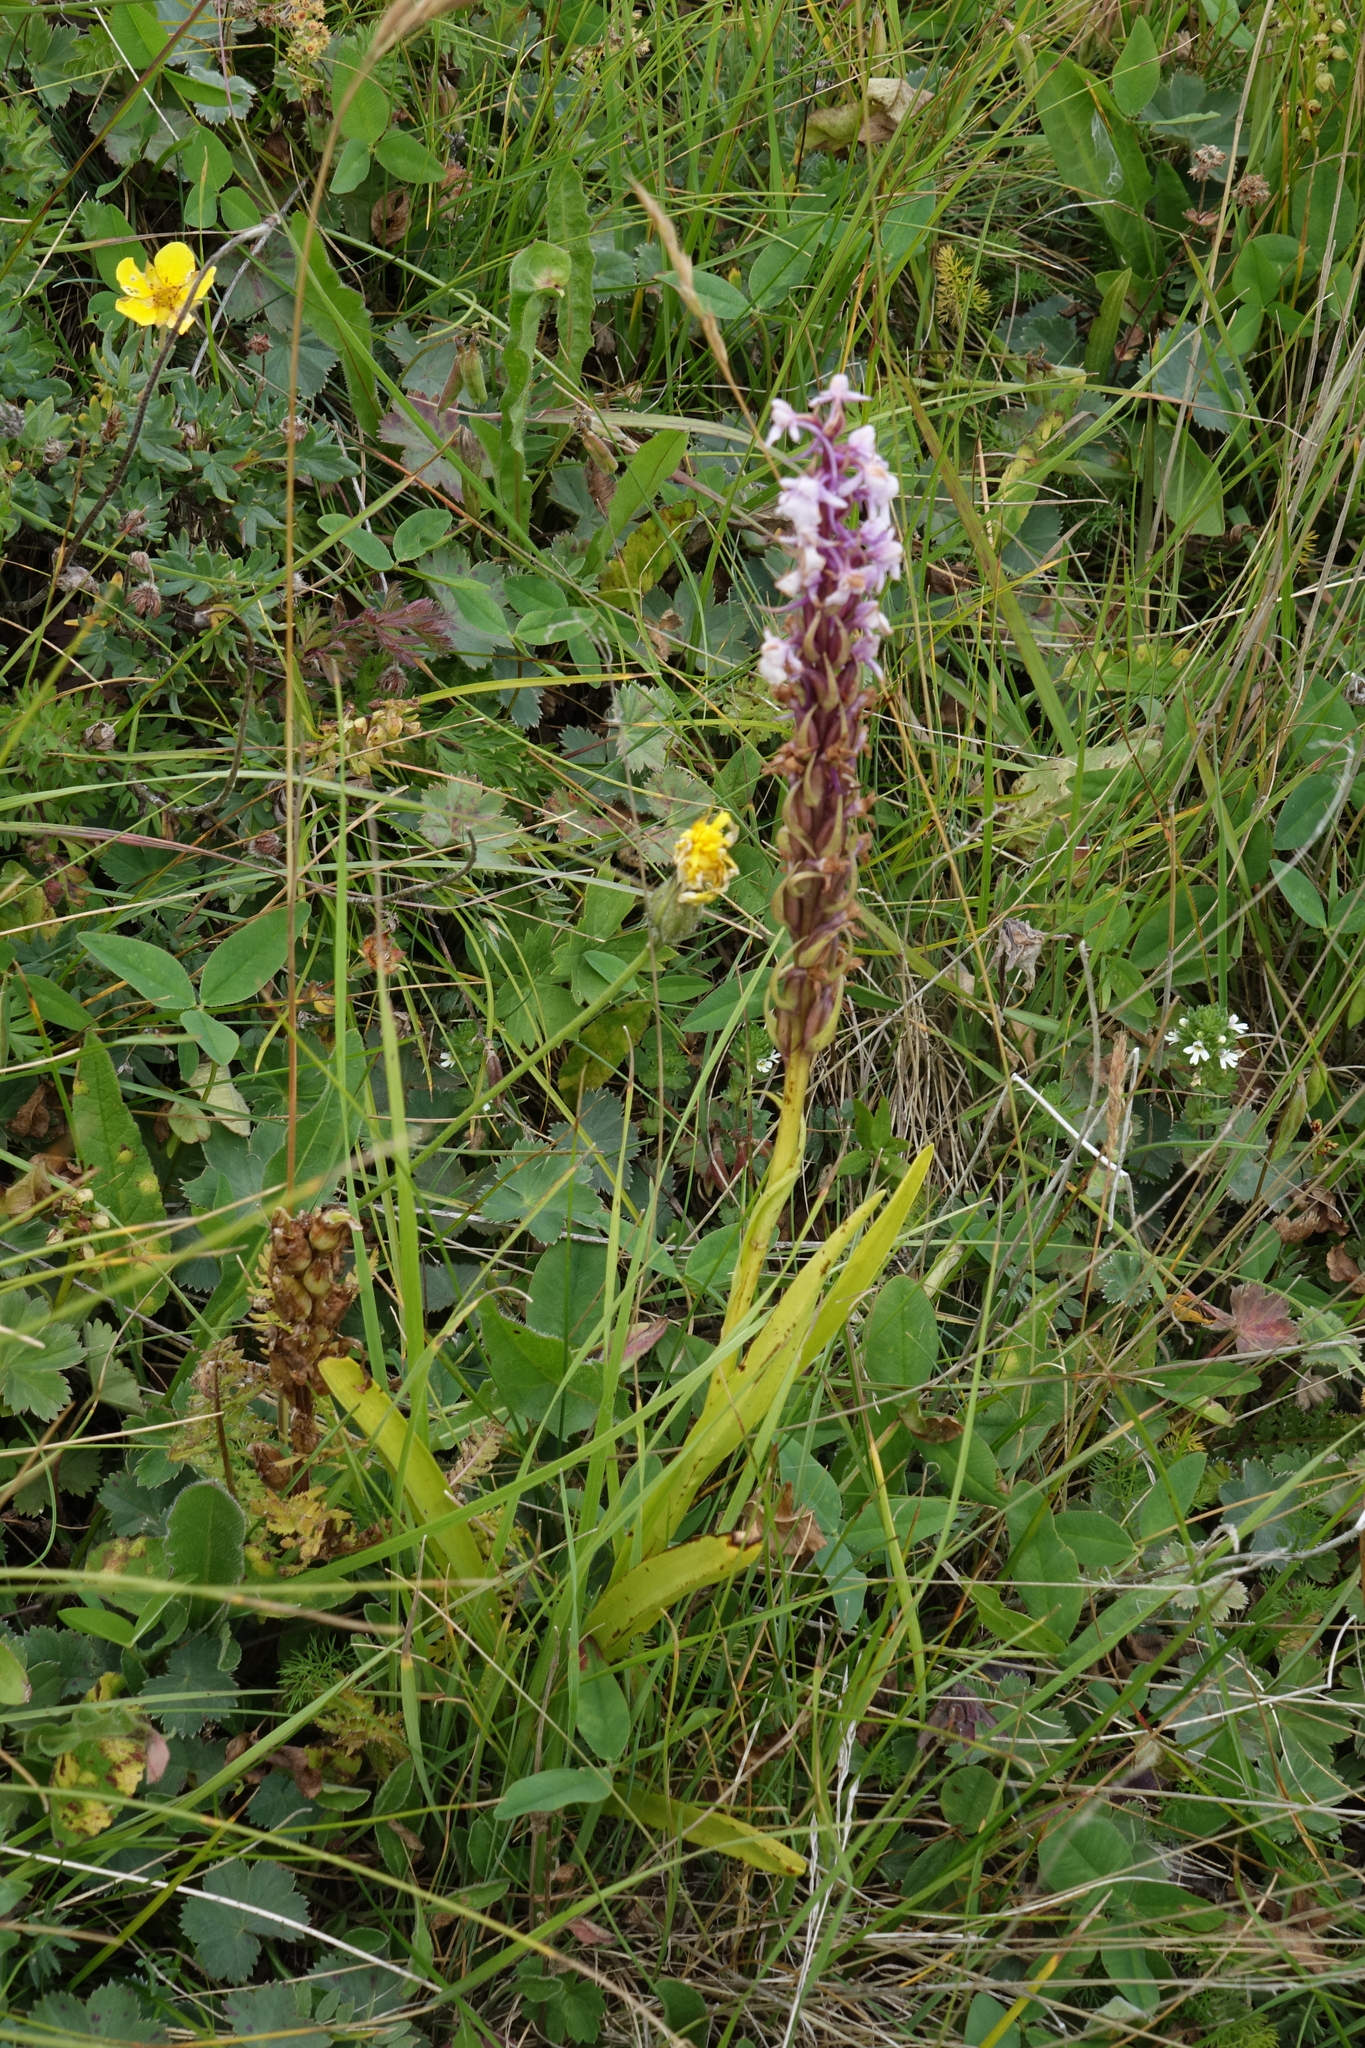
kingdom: Plantae
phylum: Tracheophyta
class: Liliopsida
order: Asparagales
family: Orchidaceae
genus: Gymnadenia
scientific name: Gymnadenia conopsea
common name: Fragrant orchid
